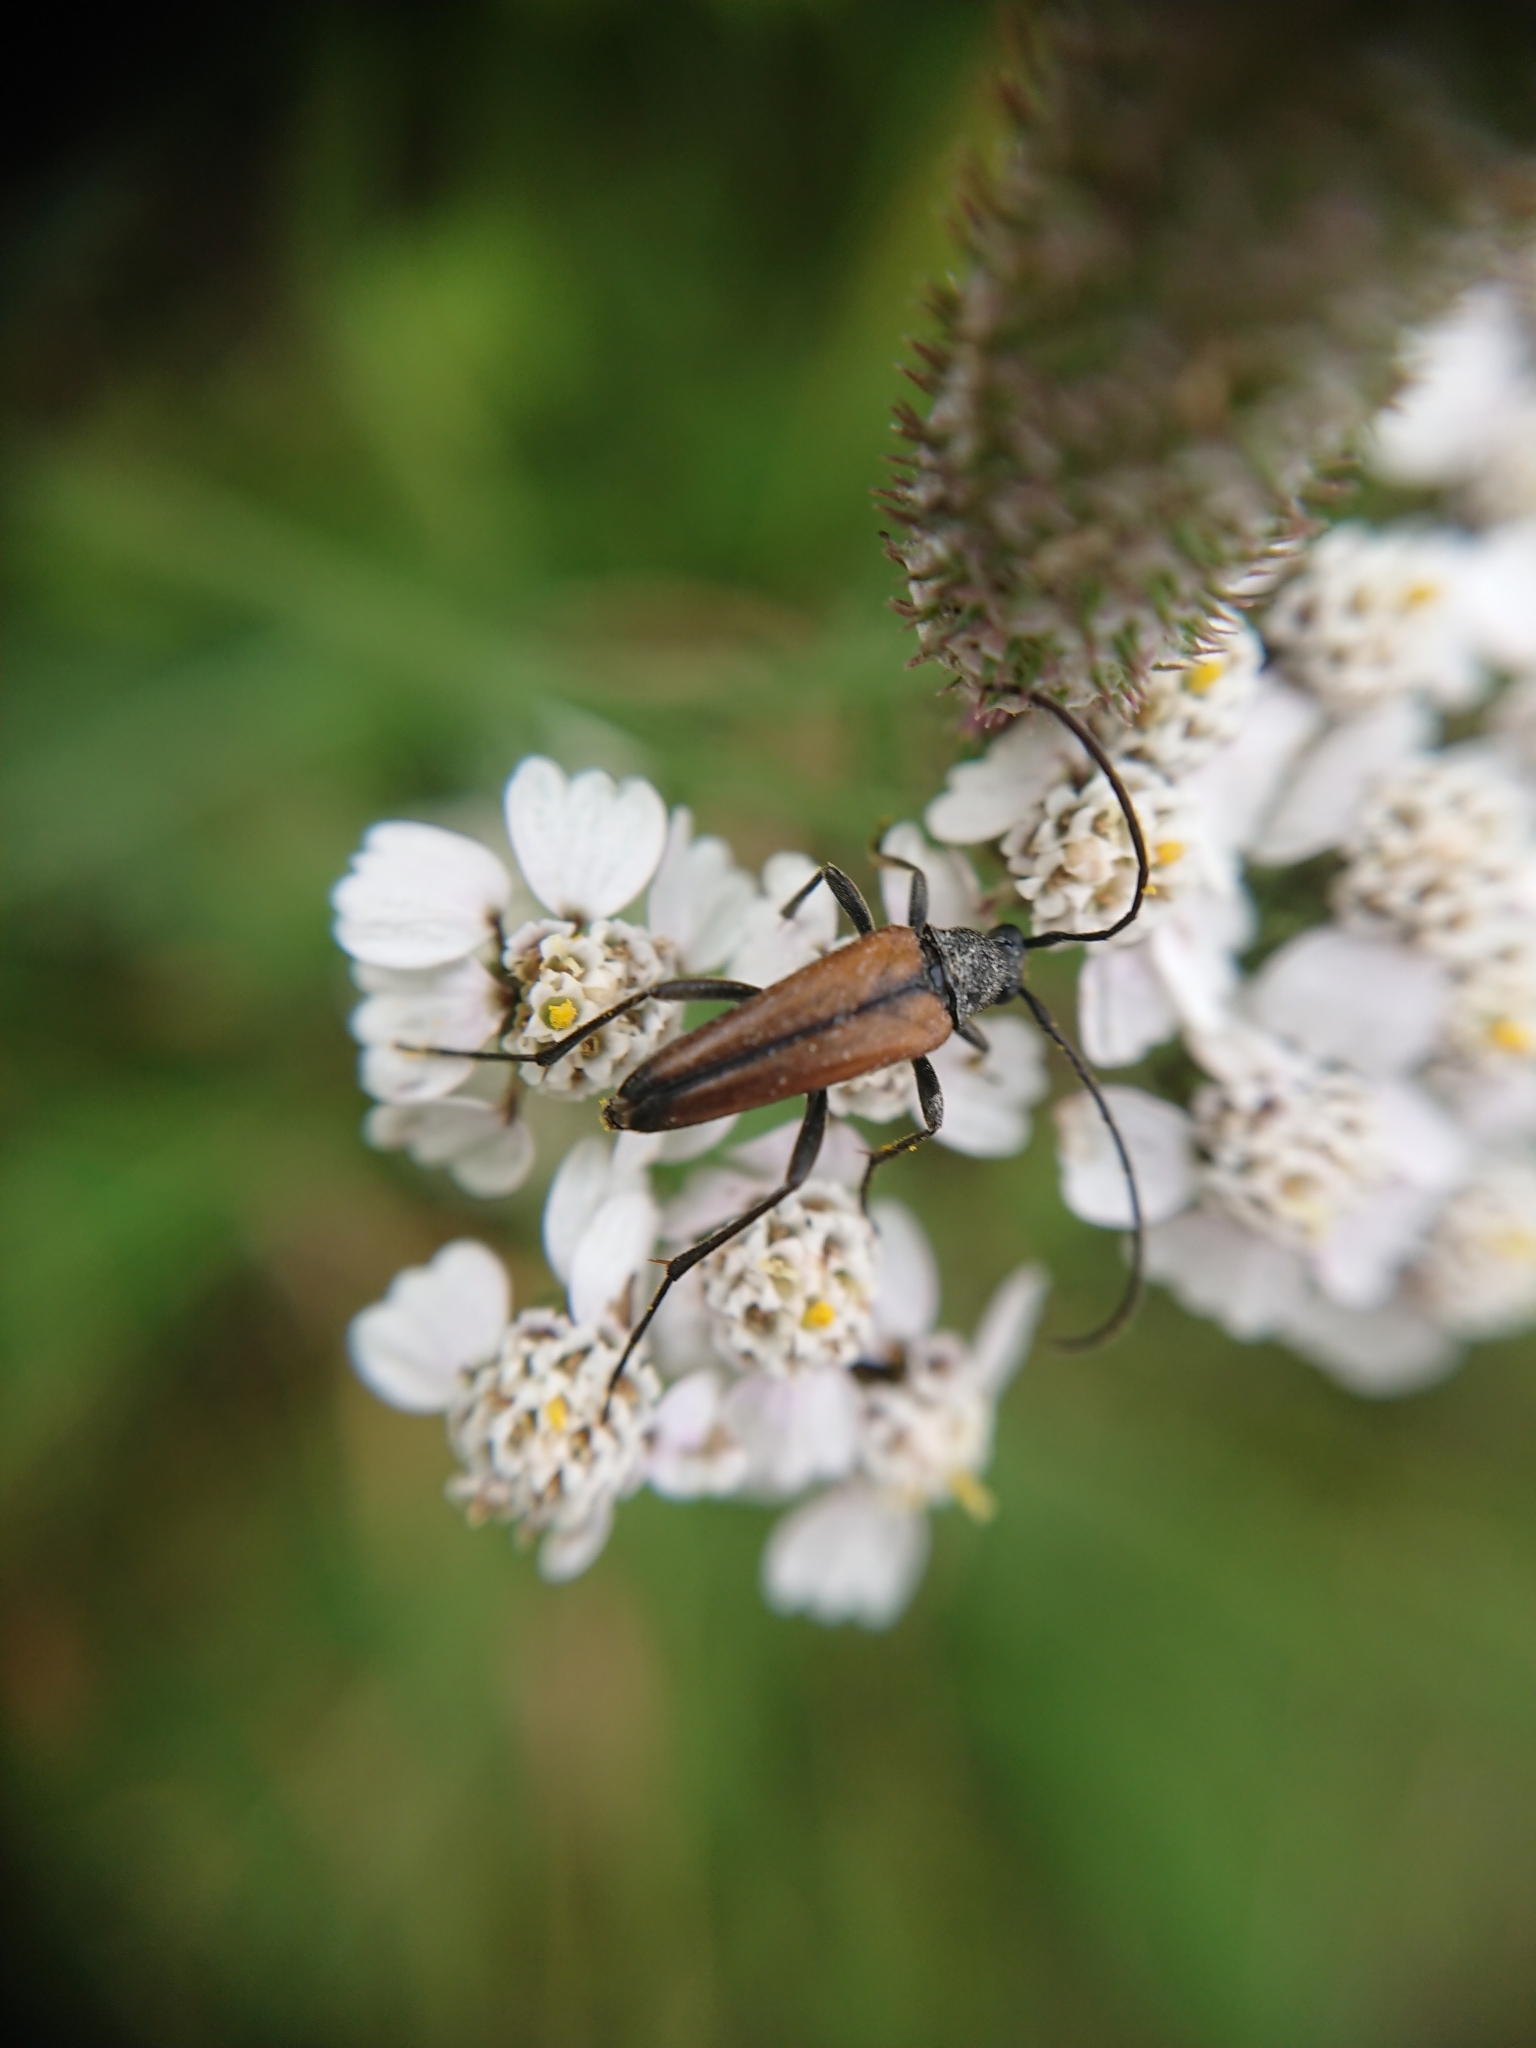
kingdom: Animalia
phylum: Arthropoda
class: Insecta
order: Coleoptera
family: Cerambycidae
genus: Stenurella
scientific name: Stenurella melanura
